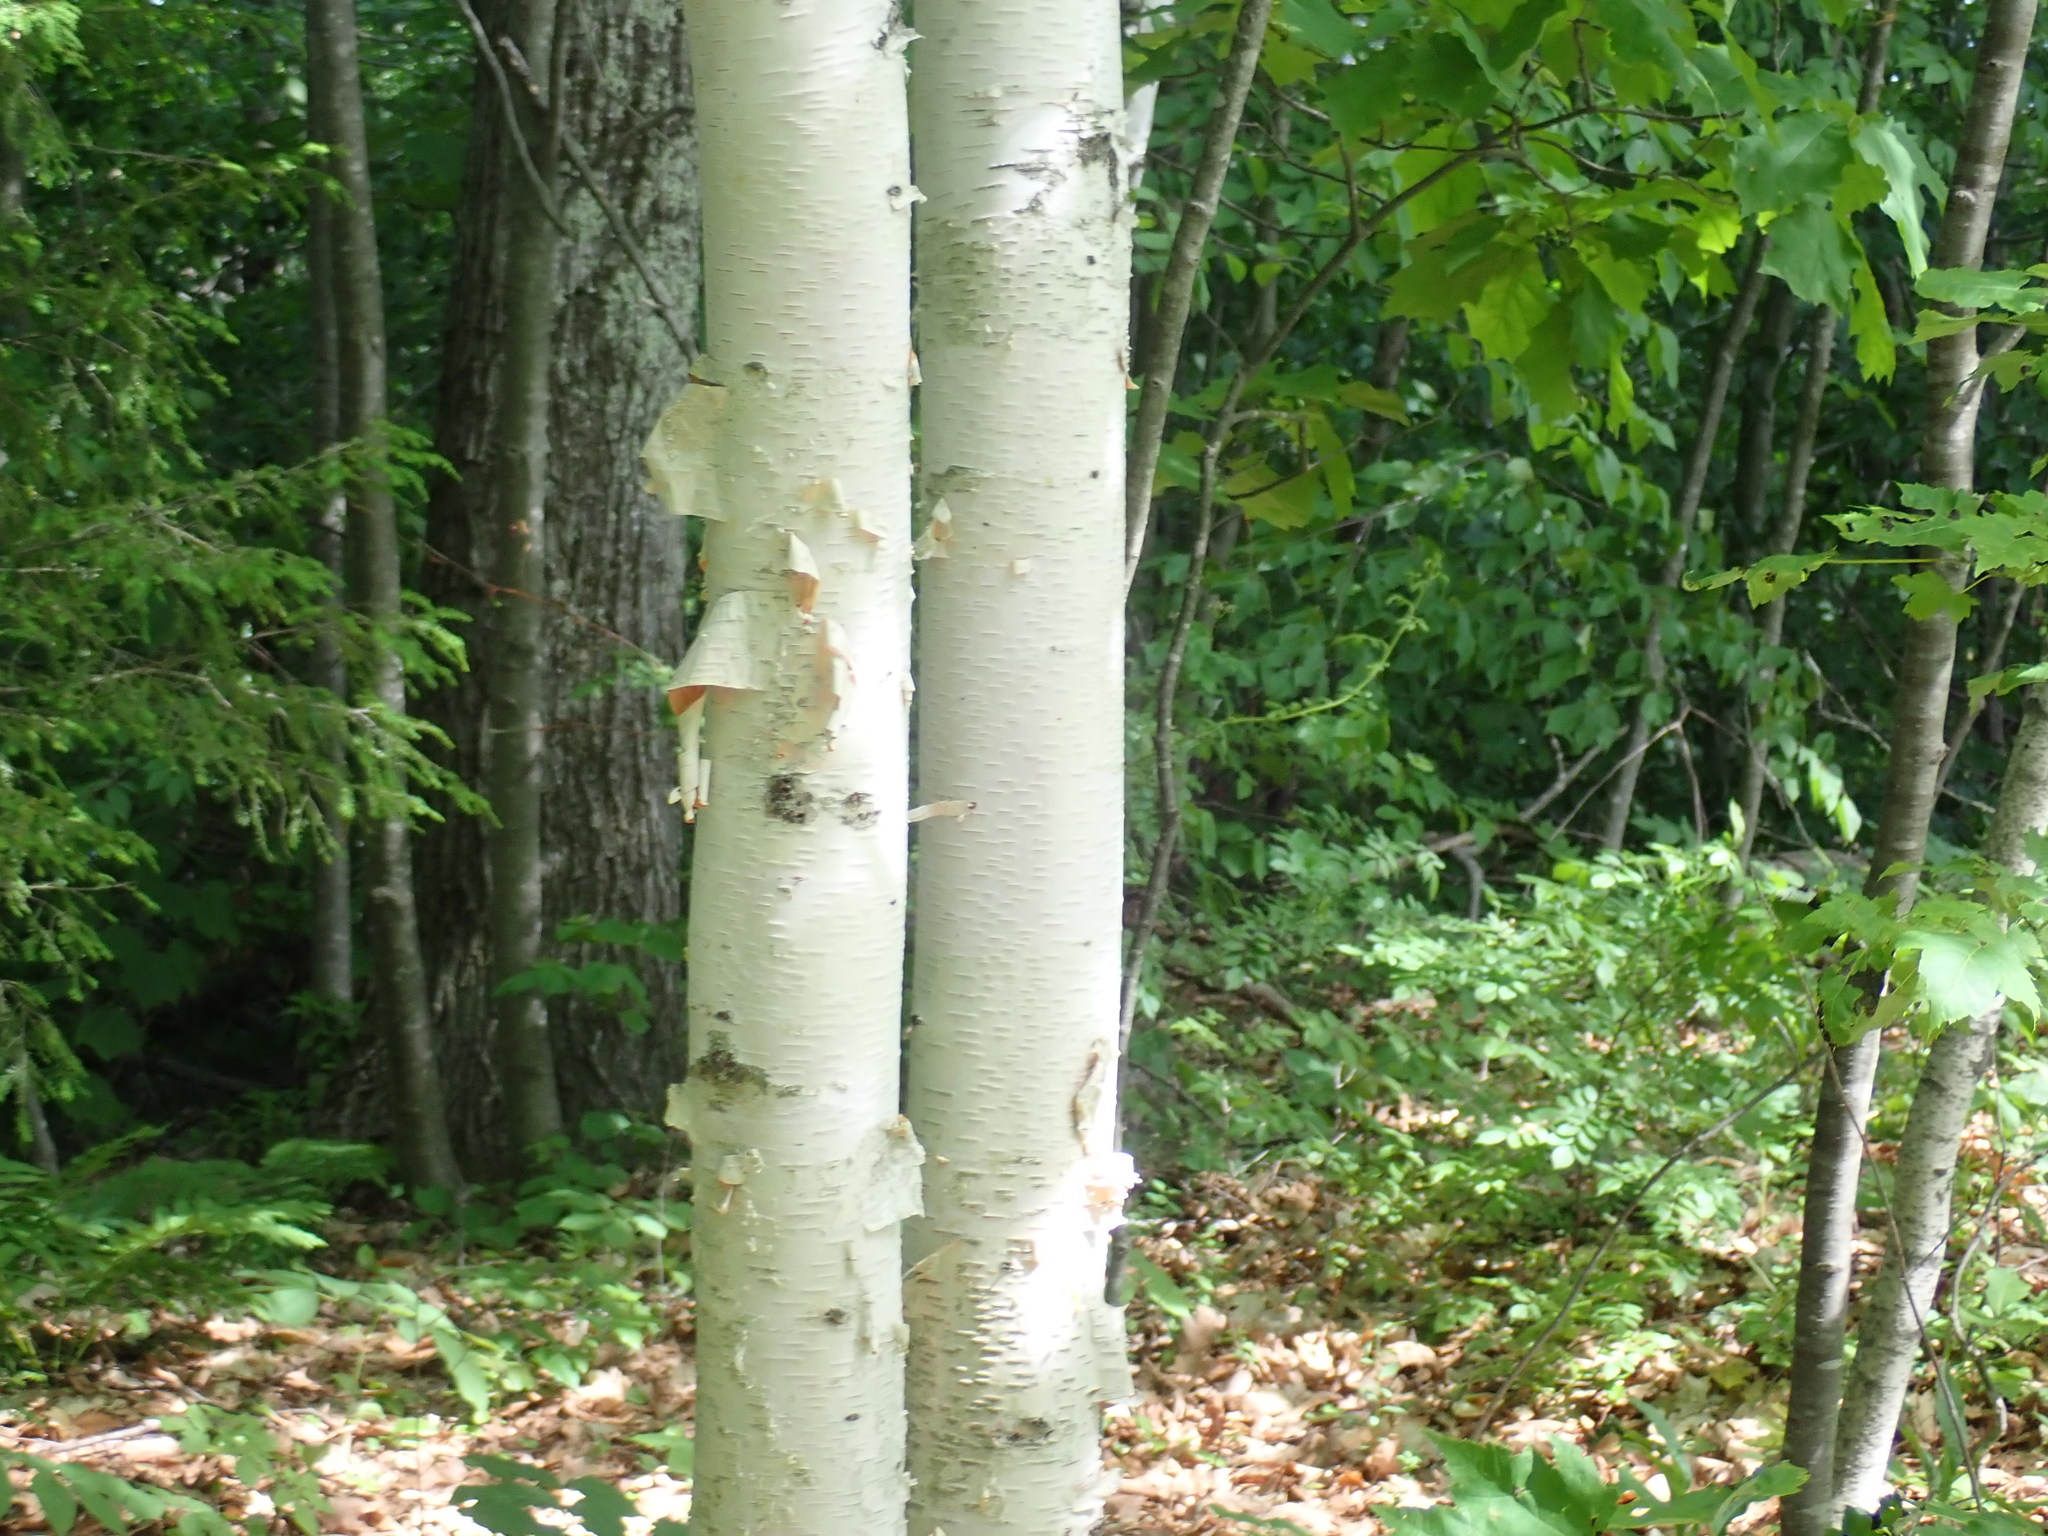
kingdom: Plantae
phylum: Tracheophyta
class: Magnoliopsida
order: Fagales
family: Betulaceae
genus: Betula
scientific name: Betula papyrifera
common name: Paper birch
